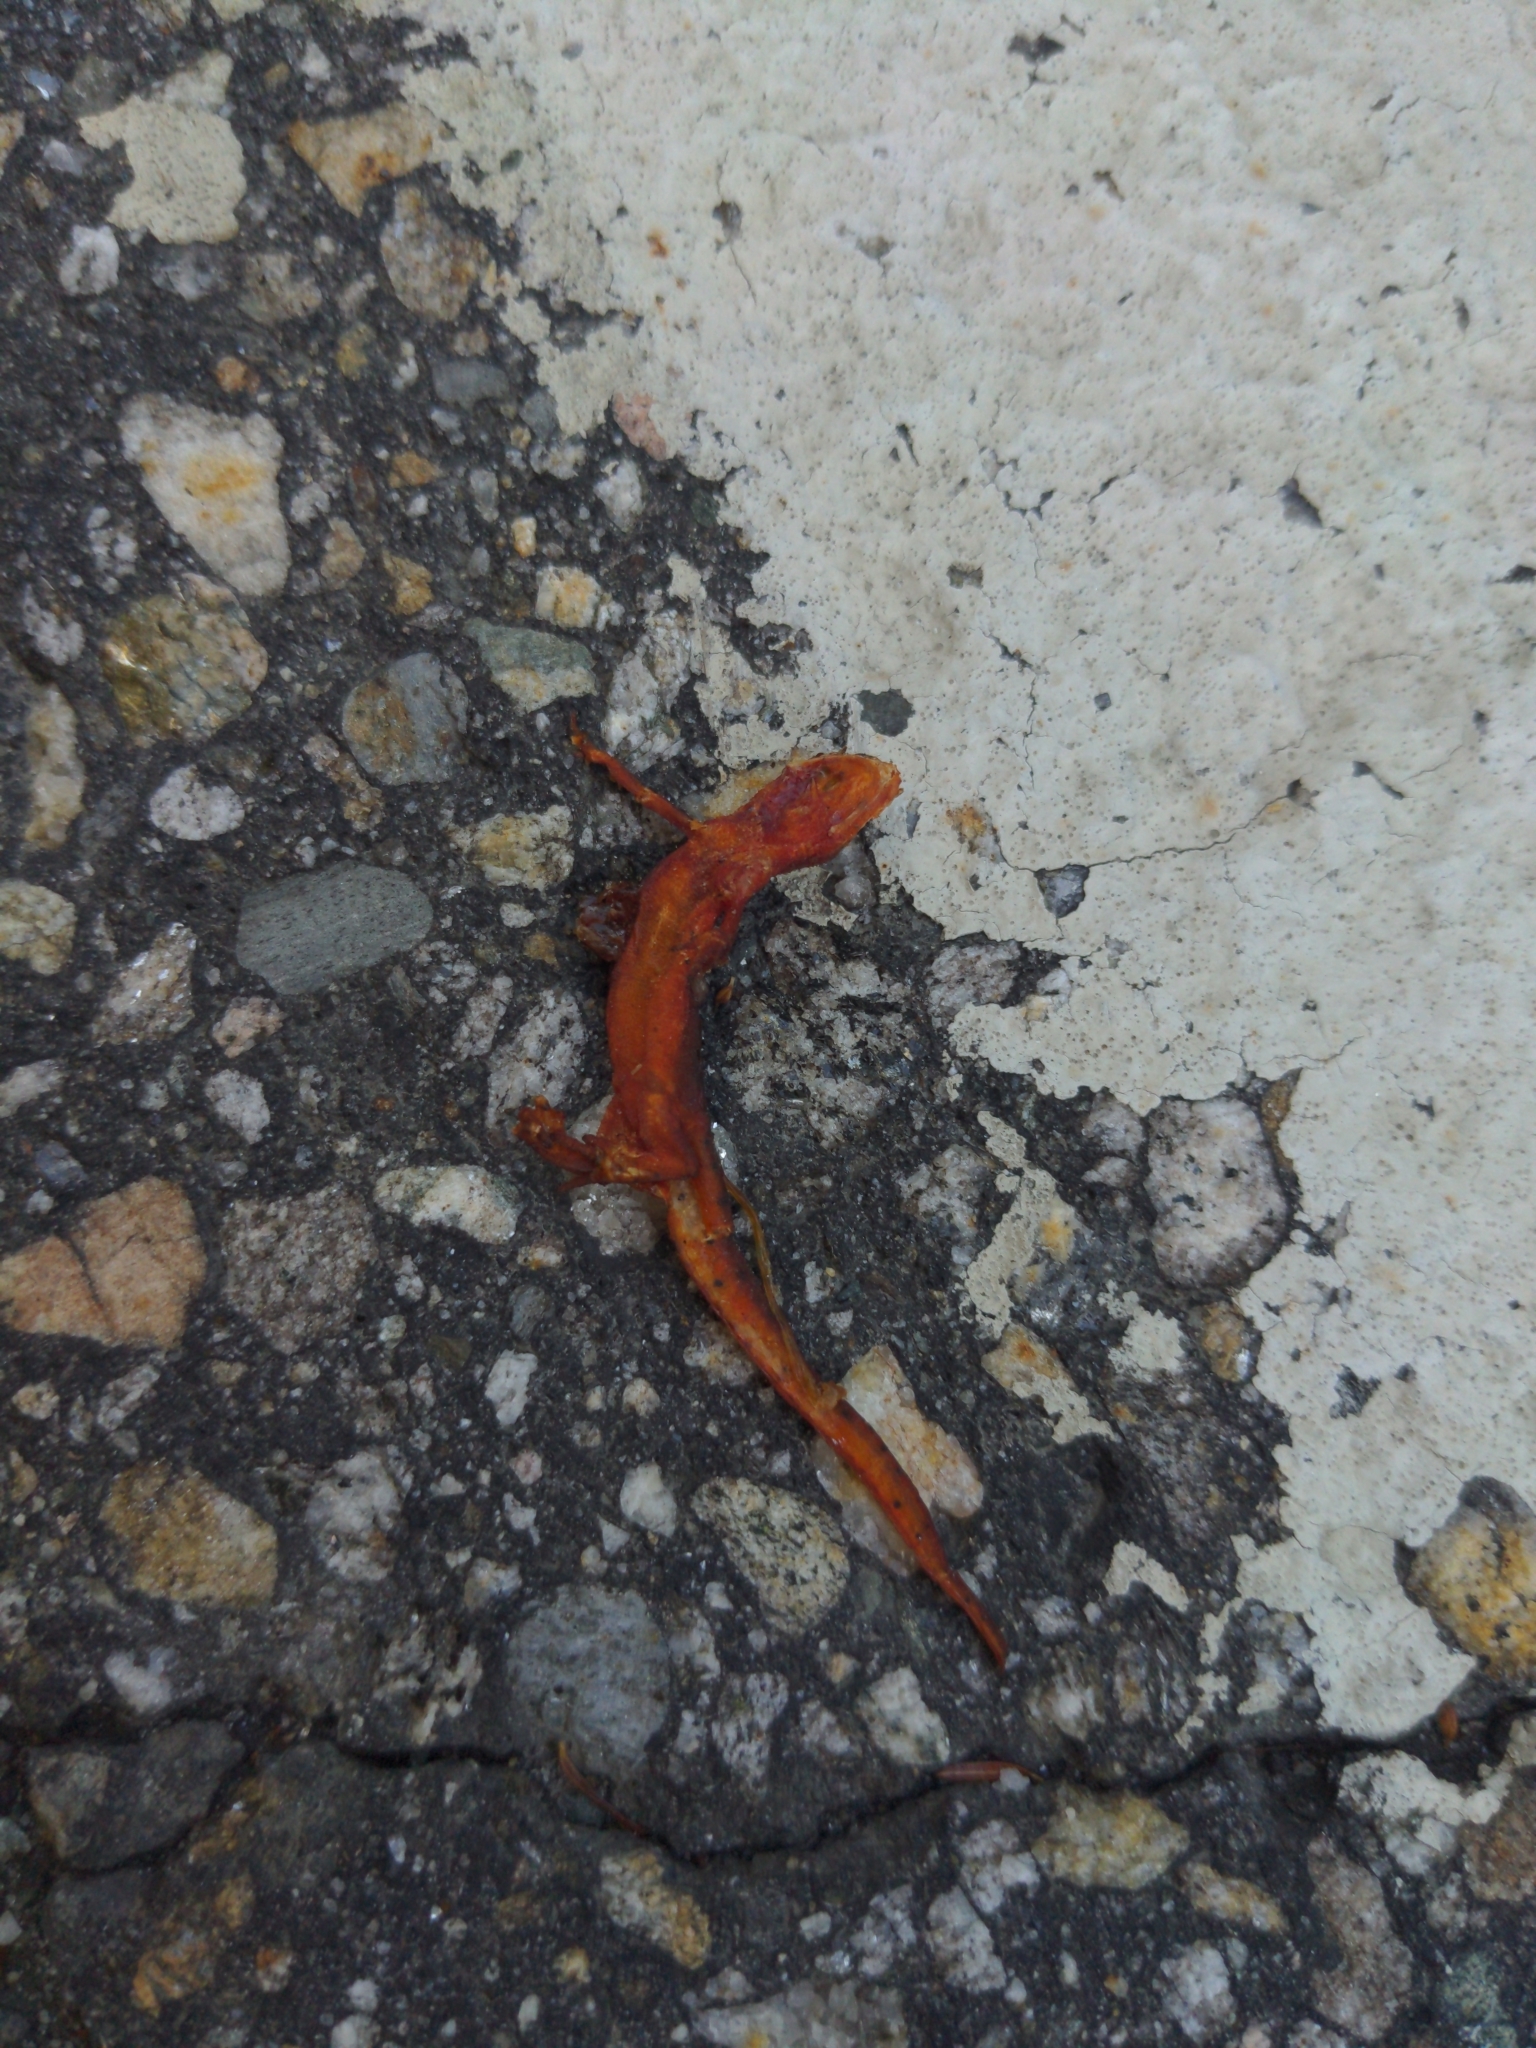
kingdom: Animalia
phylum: Chordata
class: Amphibia
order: Caudata
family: Salamandridae
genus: Notophthalmus
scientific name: Notophthalmus viridescens
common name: Eastern newt
